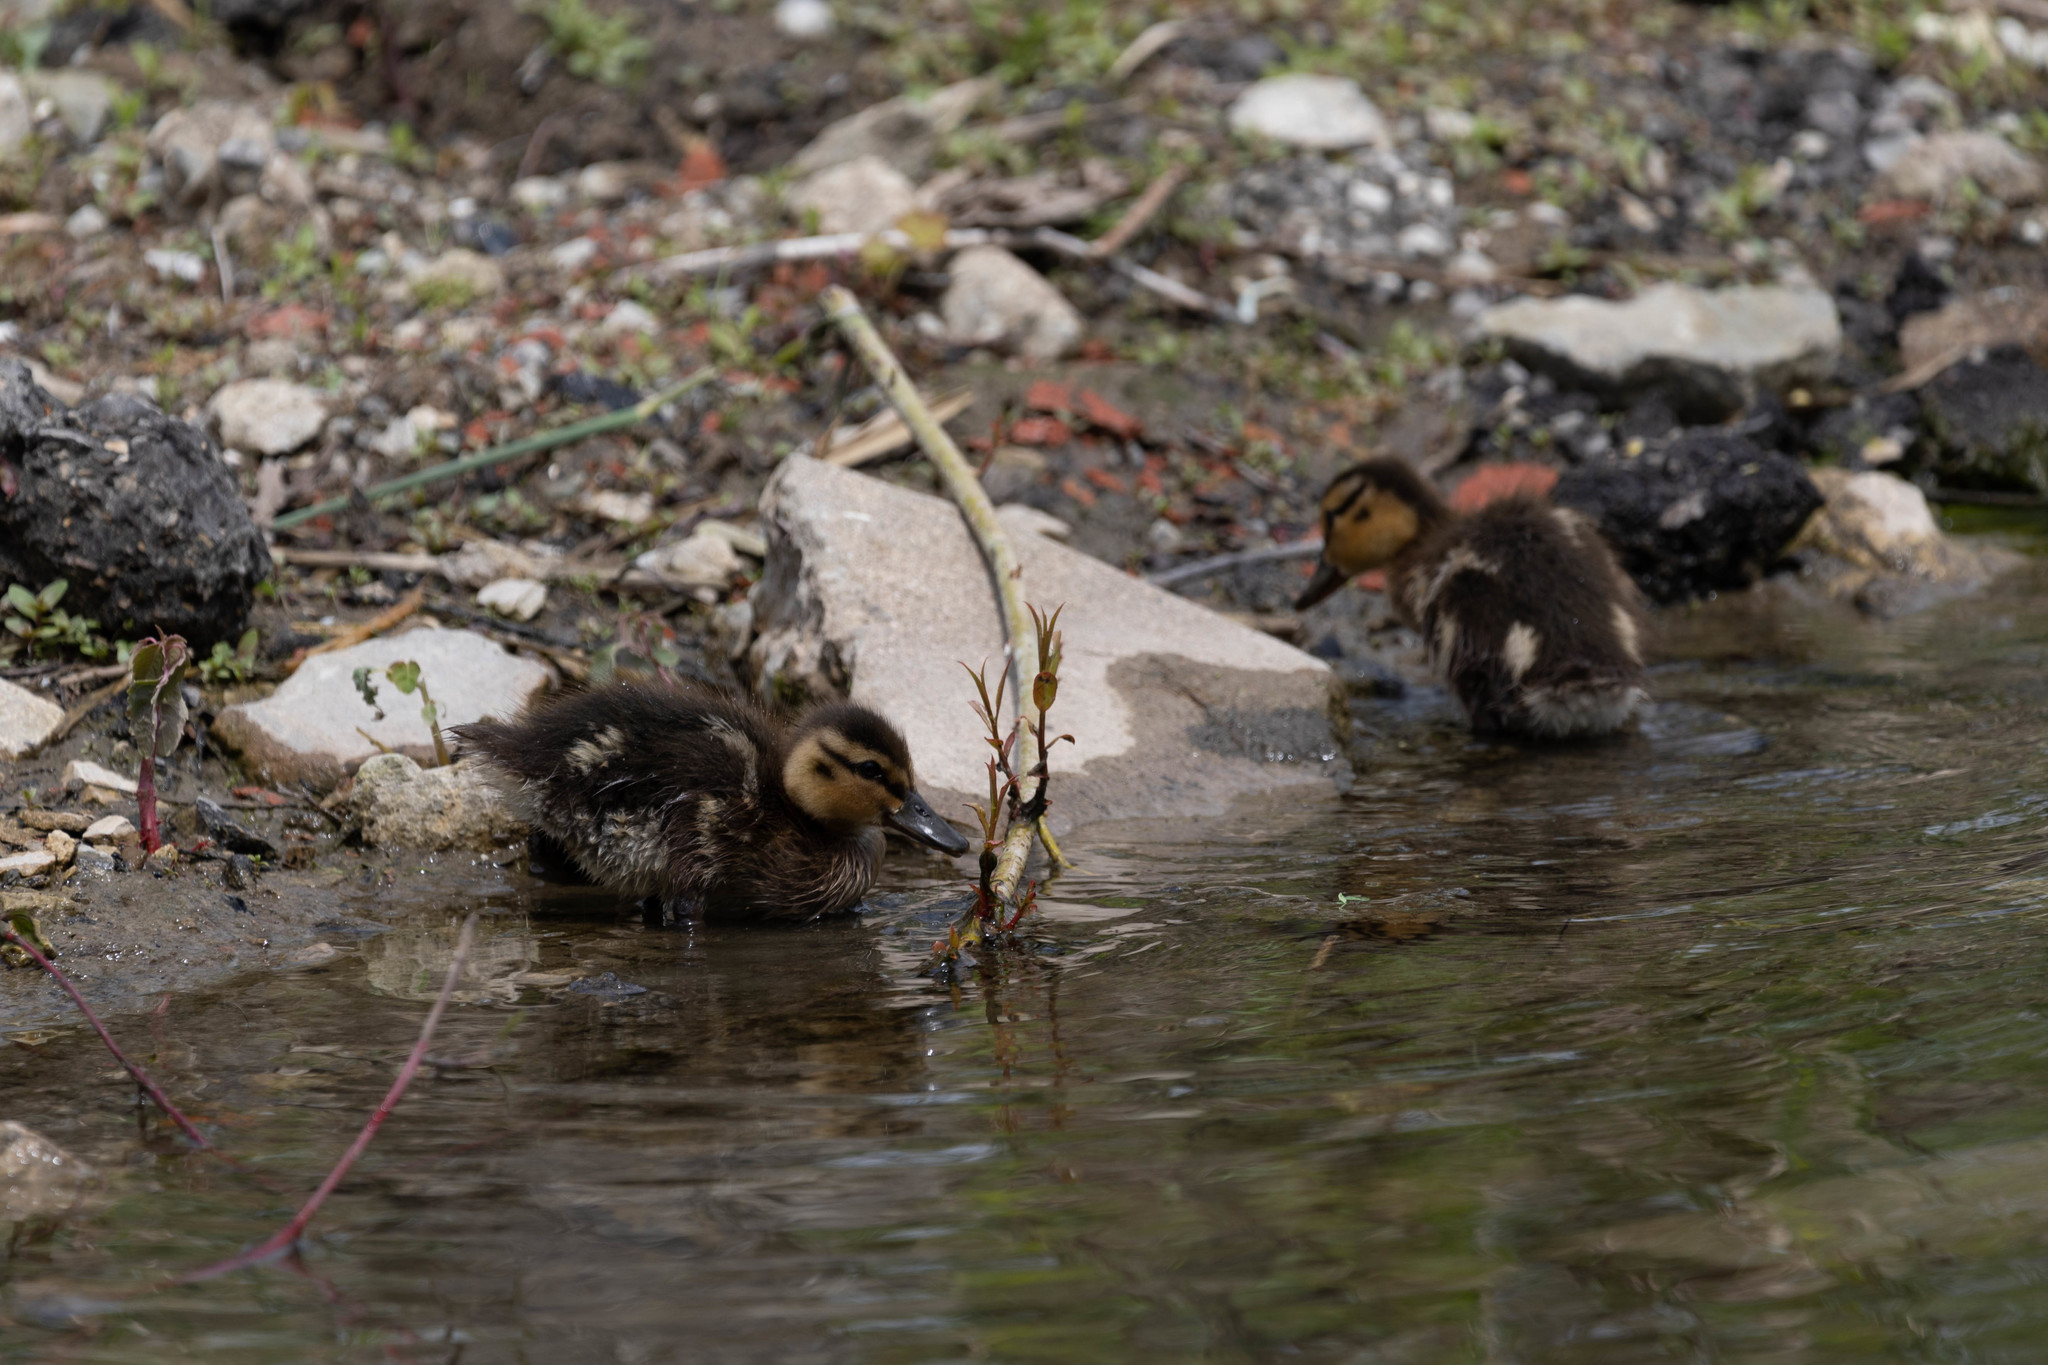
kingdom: Animalia
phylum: Chordata
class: Aves
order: Anseriformes
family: Anatidae
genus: Anas
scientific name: Anas platyrhynchos
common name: Mallard
